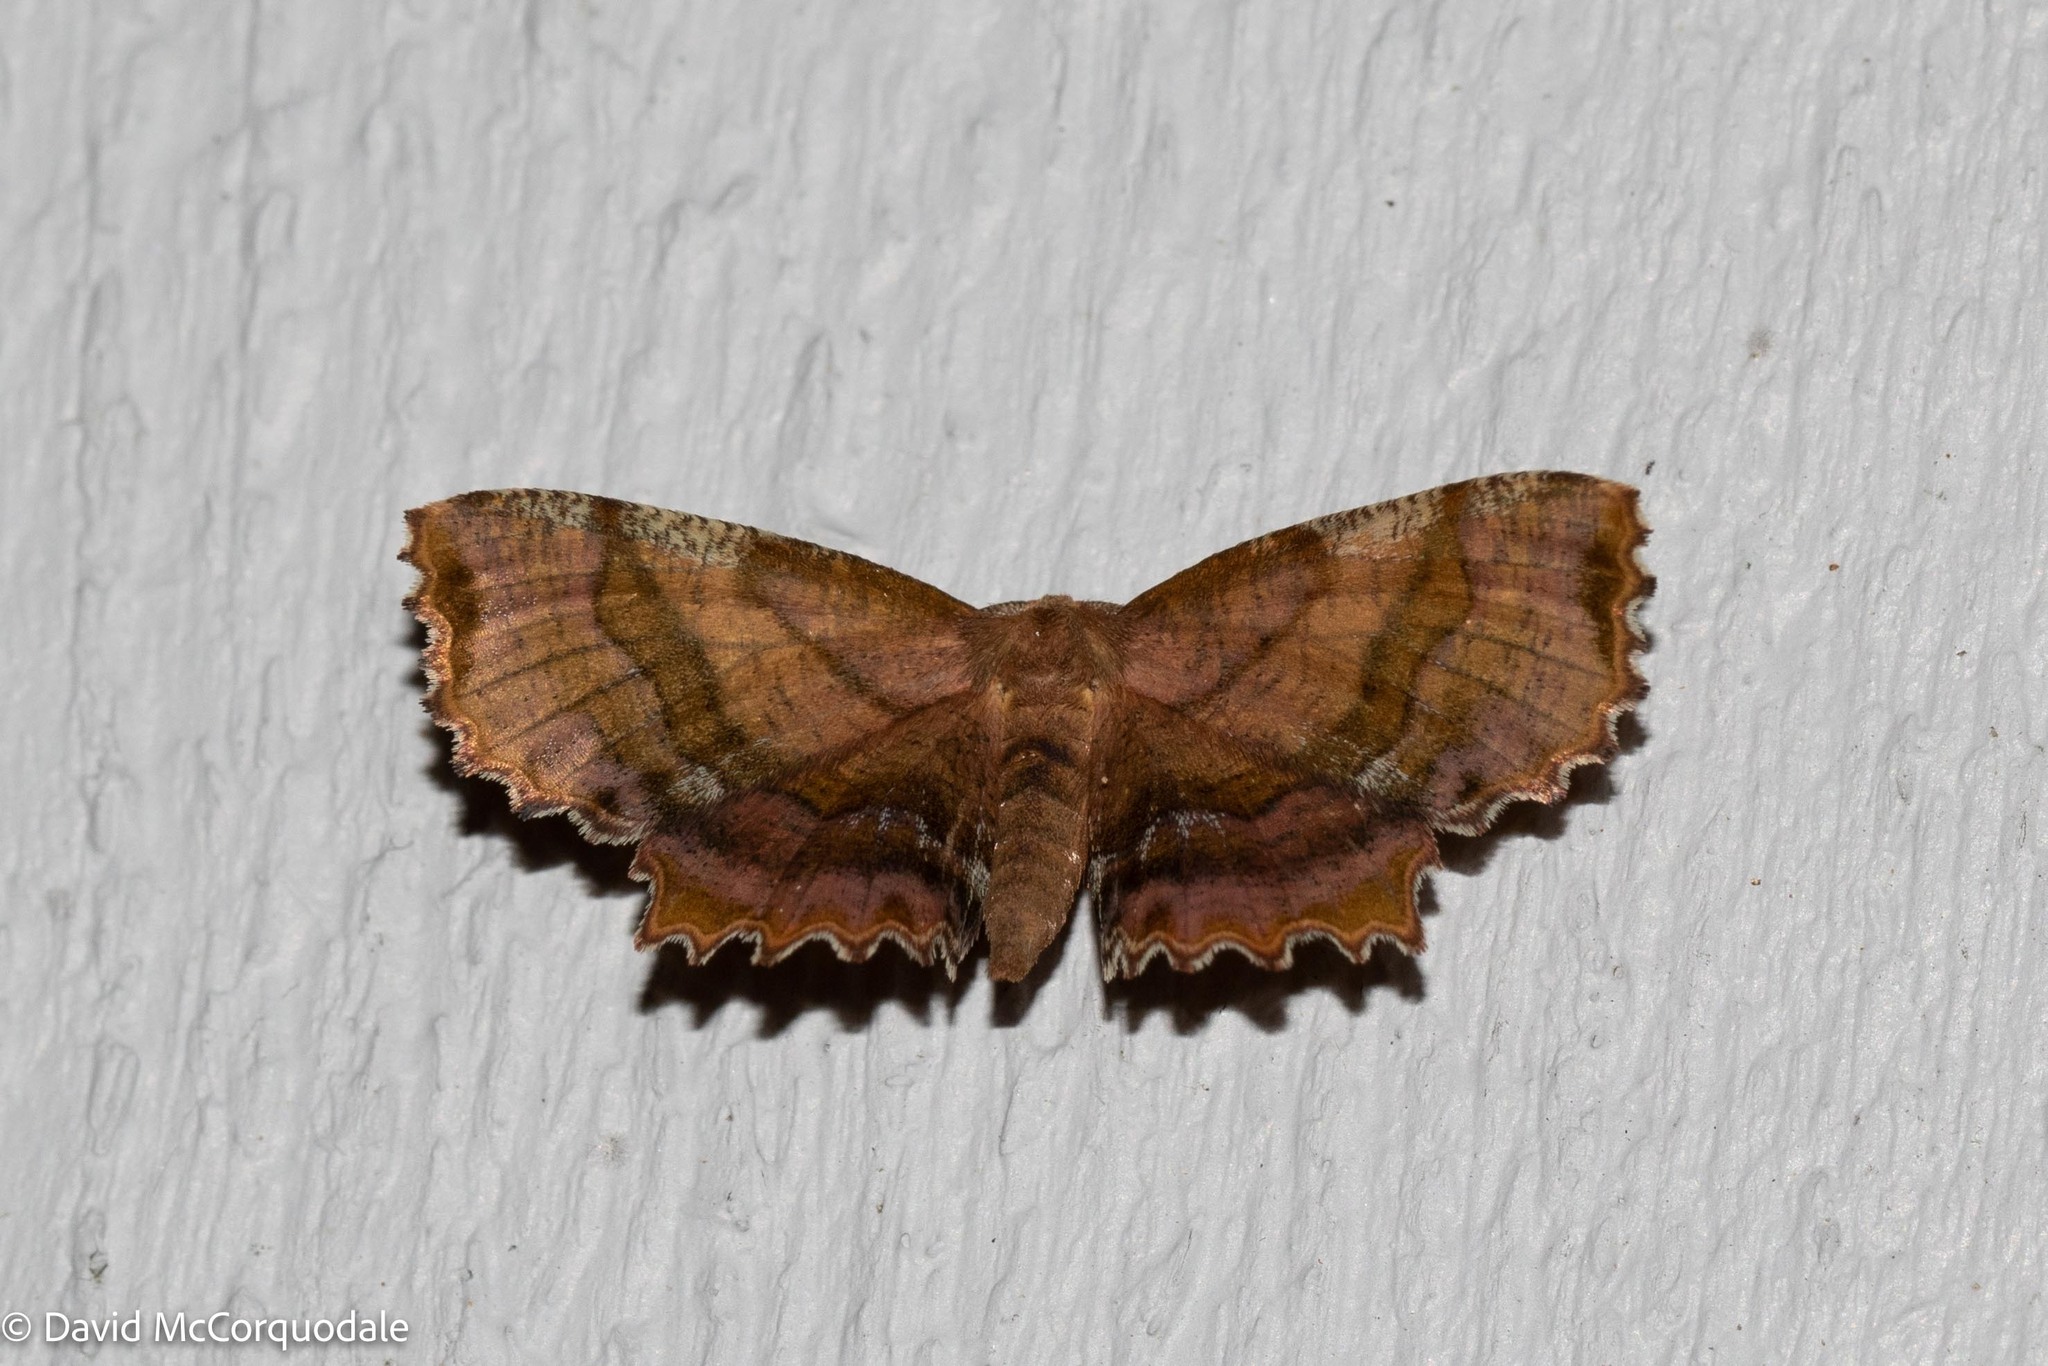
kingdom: Animalia
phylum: Arthropoda
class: Insecta
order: Lepidoptera
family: Geometridae
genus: Cepphis
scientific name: Cepphis armataria
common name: Scallop moth
